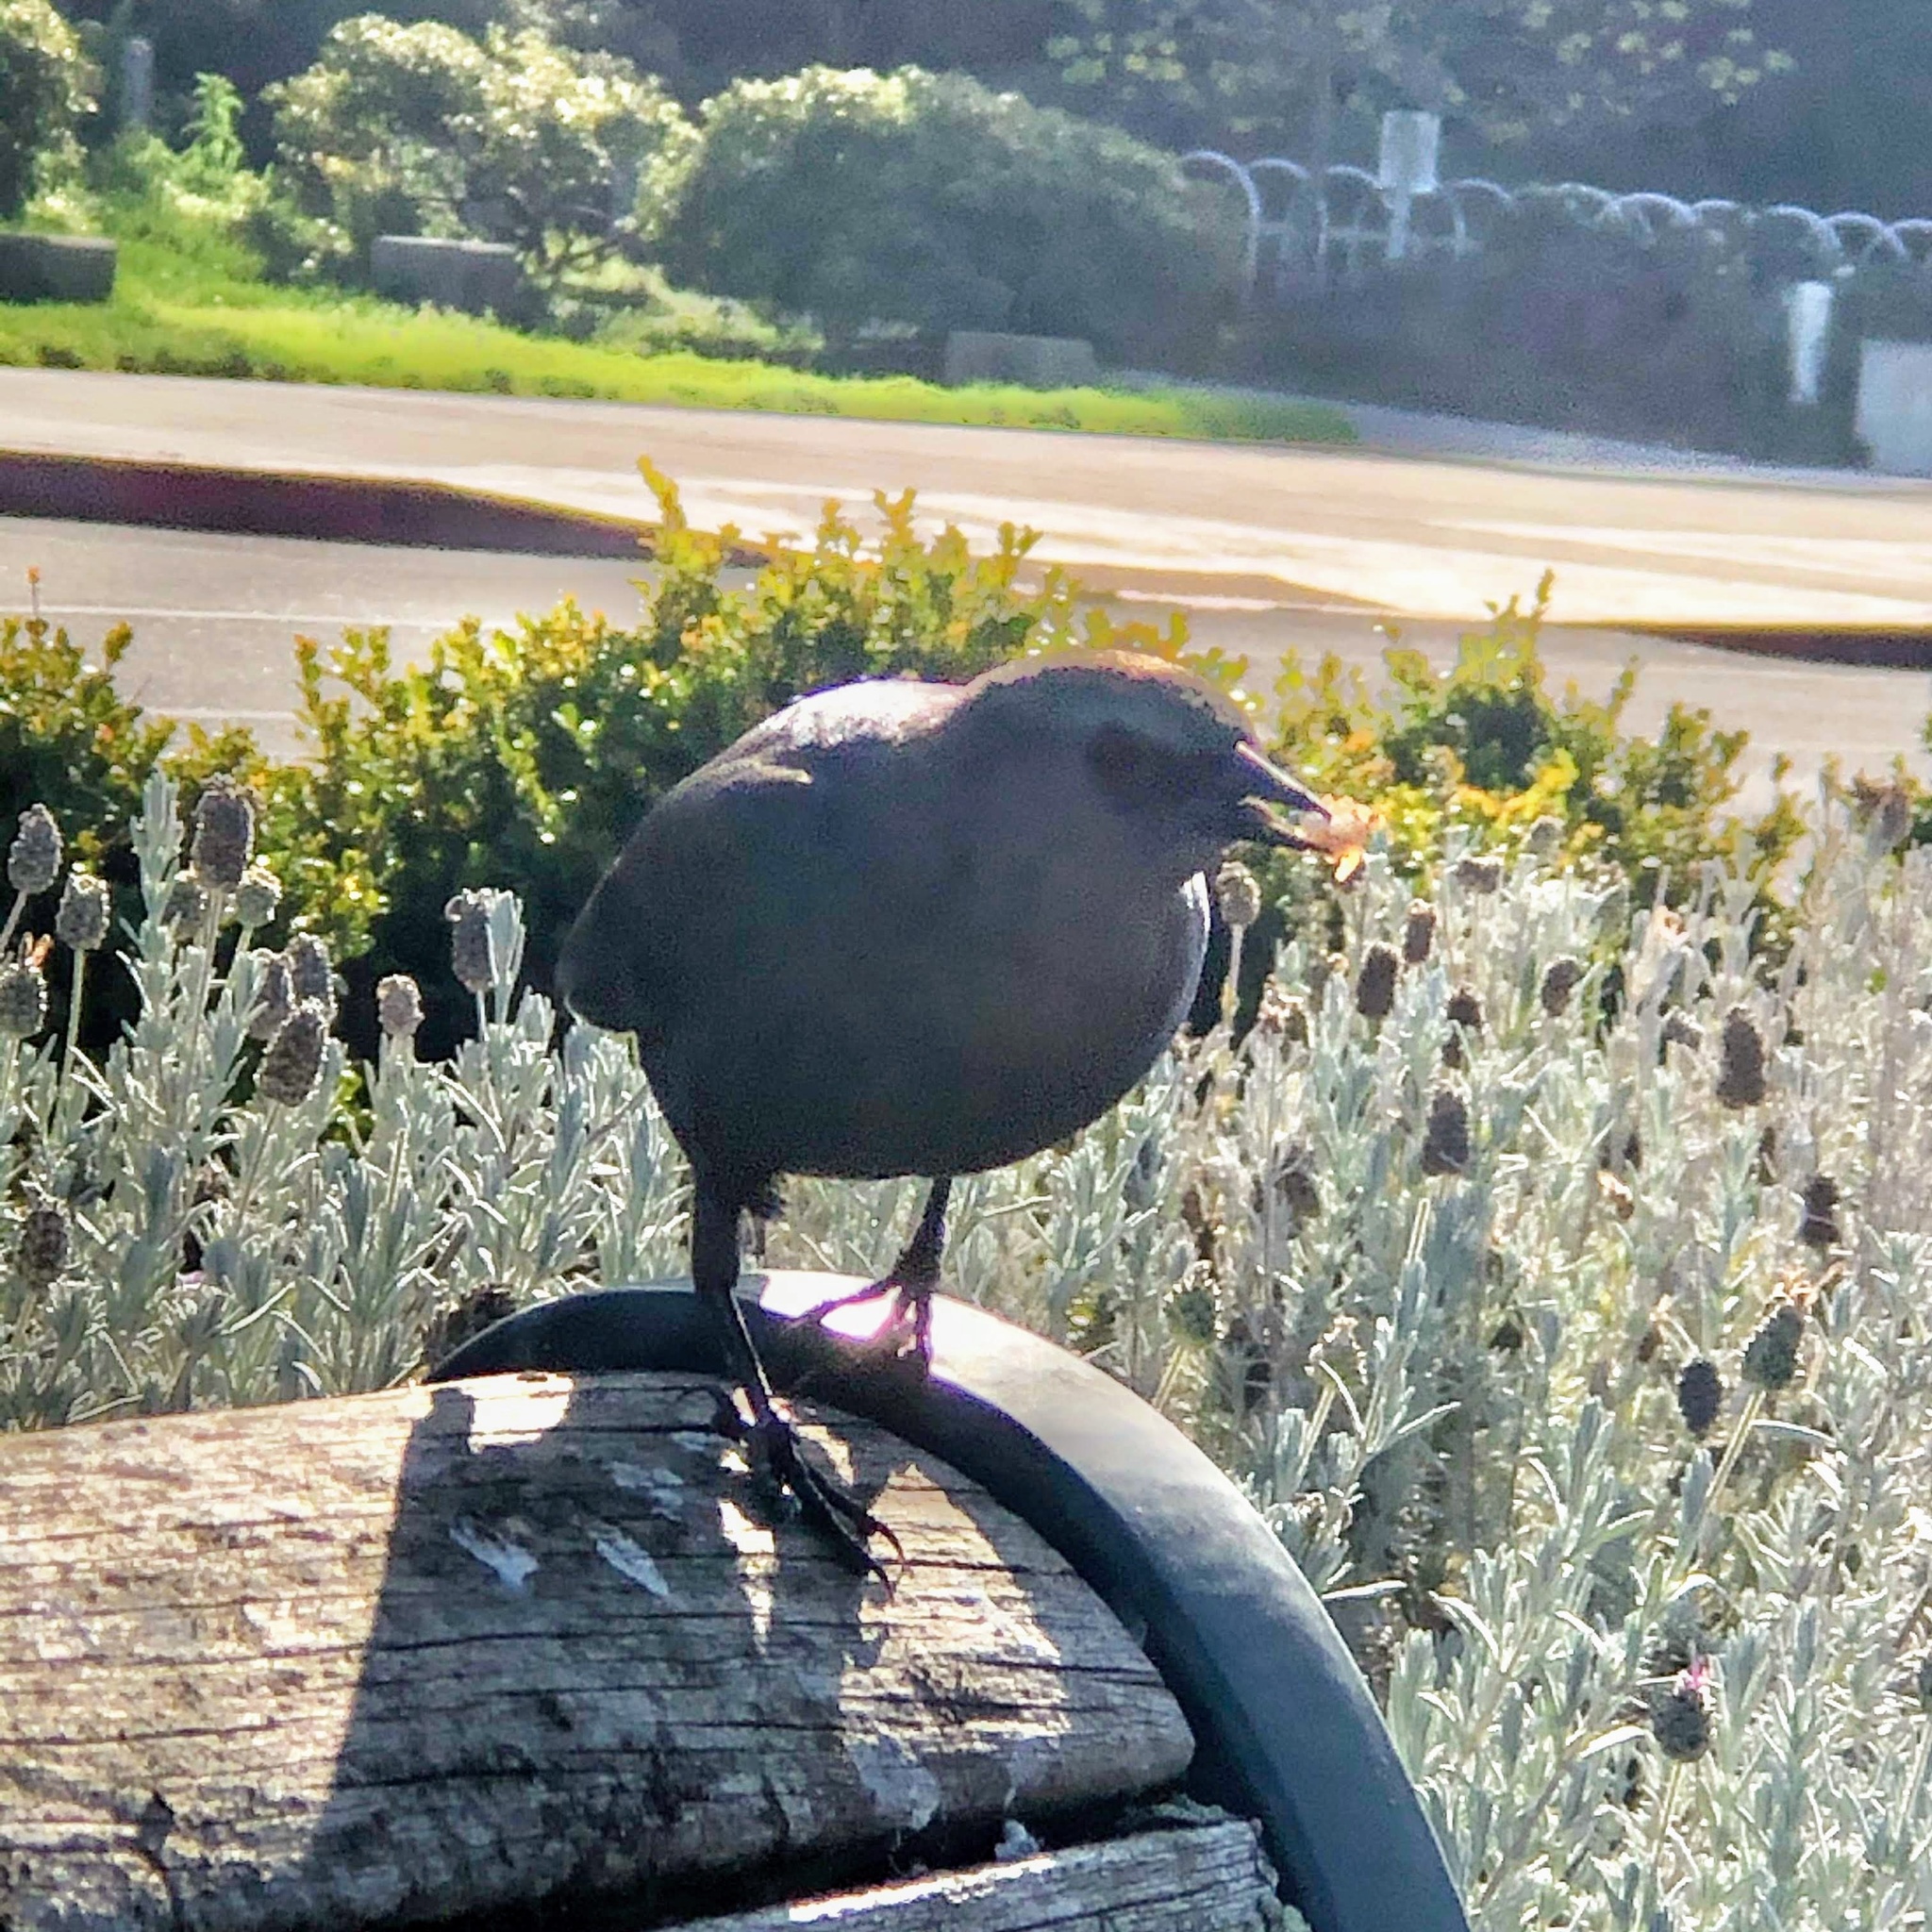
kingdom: Animalia
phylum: Chordata
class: Aves
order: Passeriformes
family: Icteridae
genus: Euphagus
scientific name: Euphagus cyanocephalus
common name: Brewer's blackbird
